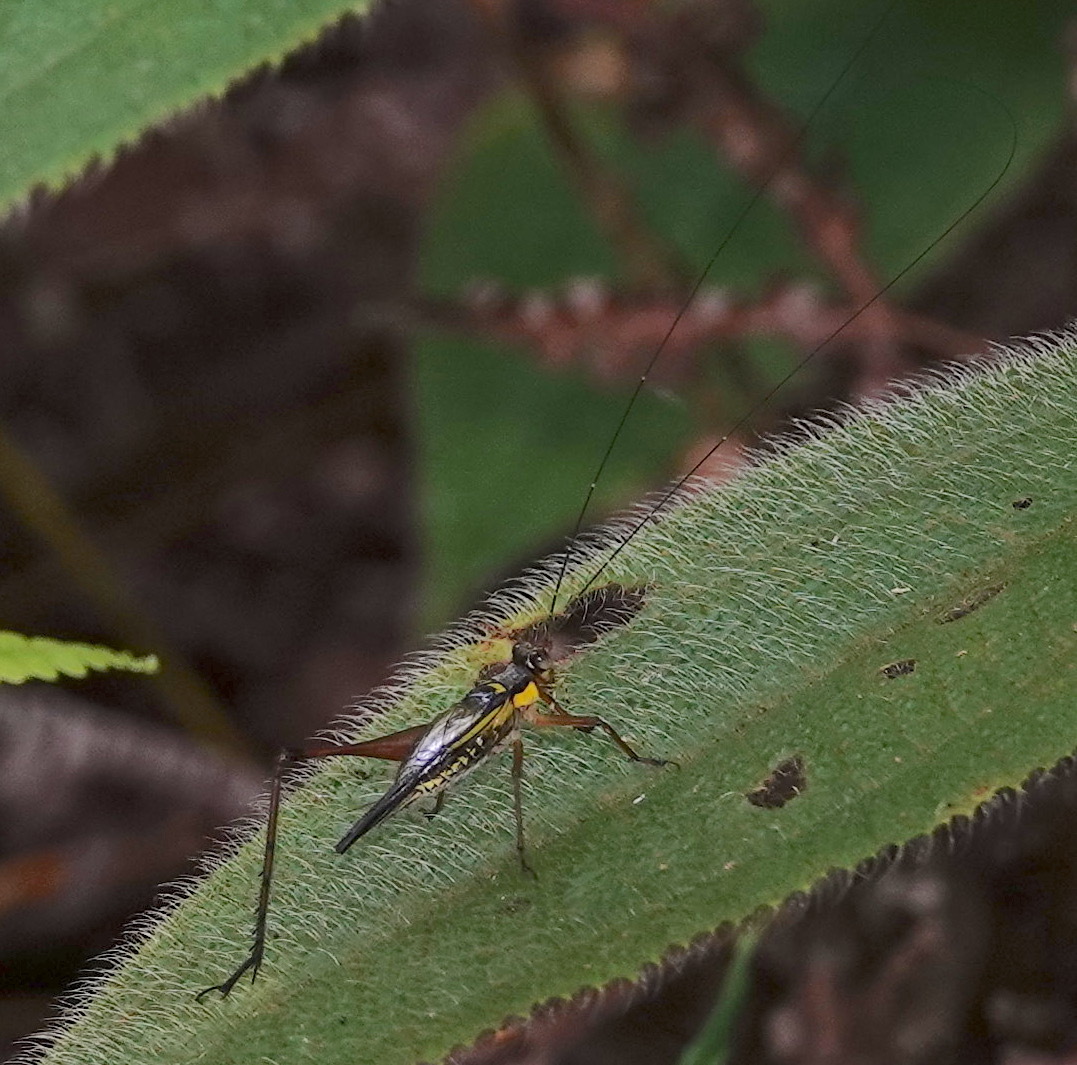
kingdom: Animalia
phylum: Arthropoda
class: Insecta
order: Orthoptera
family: Gryllidae
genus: Nisitrus
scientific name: Nisitrus malaya
